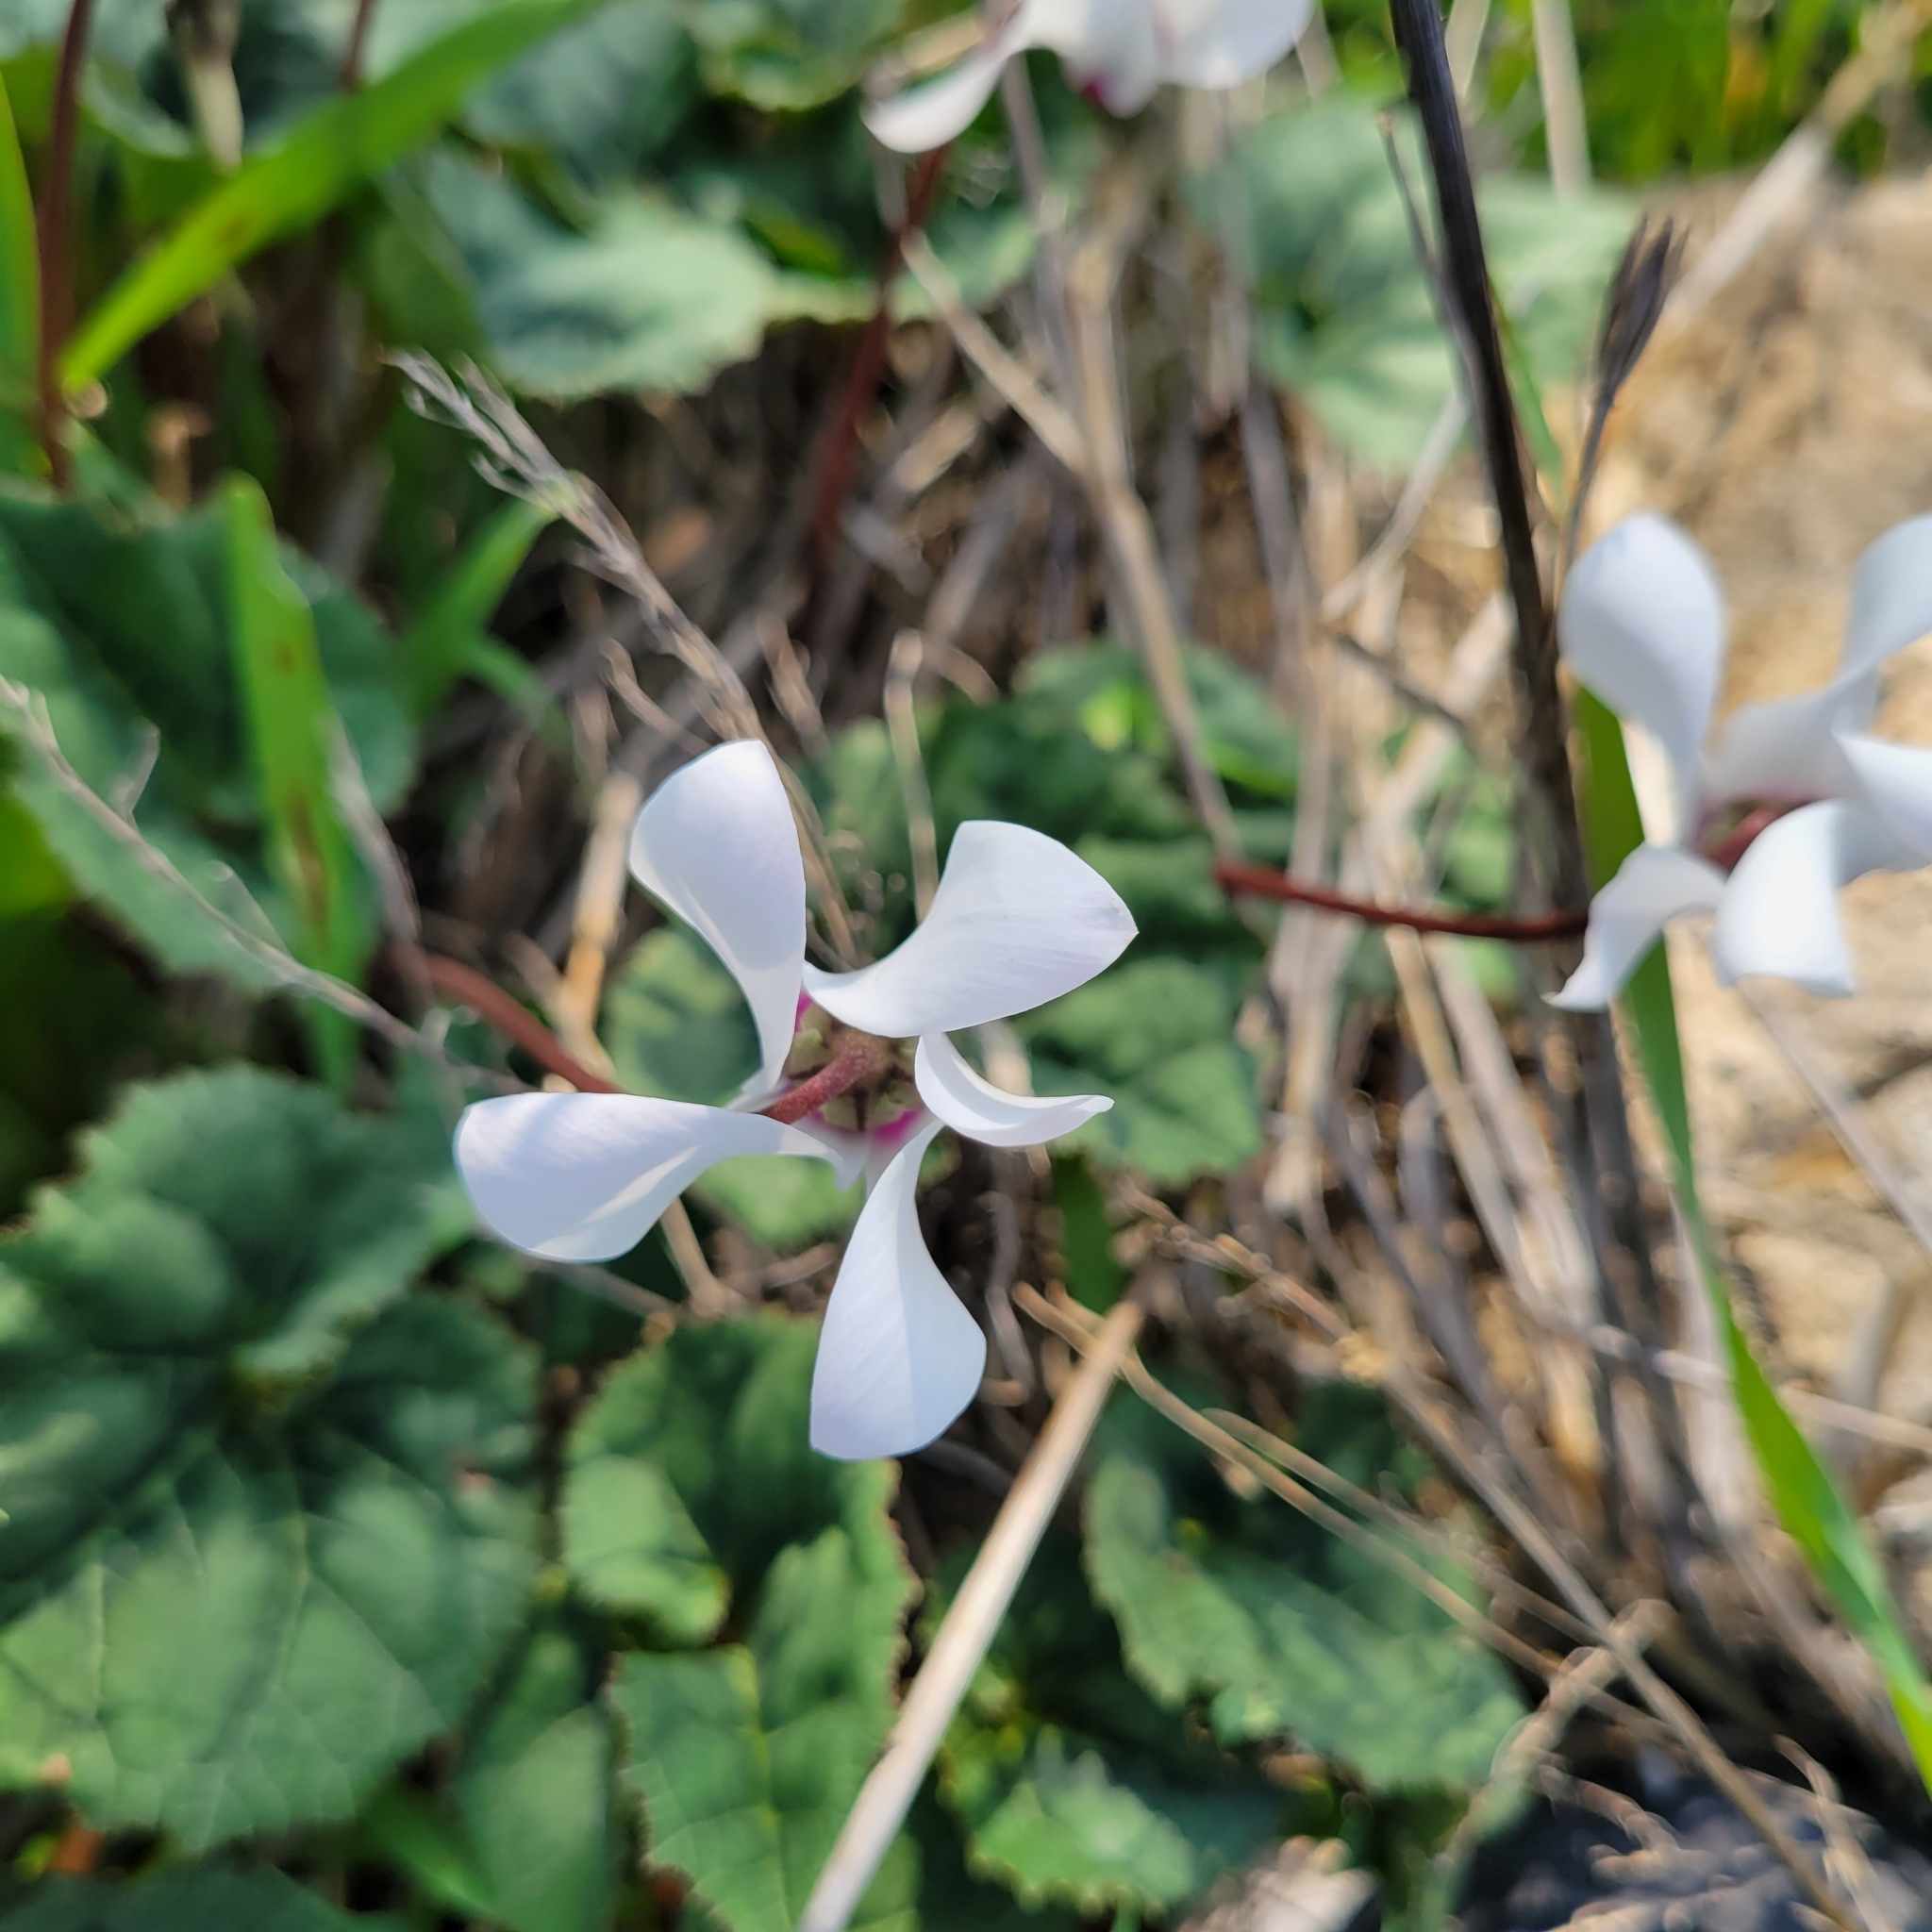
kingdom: Plantae
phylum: Tracheophyta
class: Magnoliopsida
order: Ericales
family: Primulaceae
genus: Cyclamen
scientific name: Cyclamen persicum
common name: Florist's cyclamen
